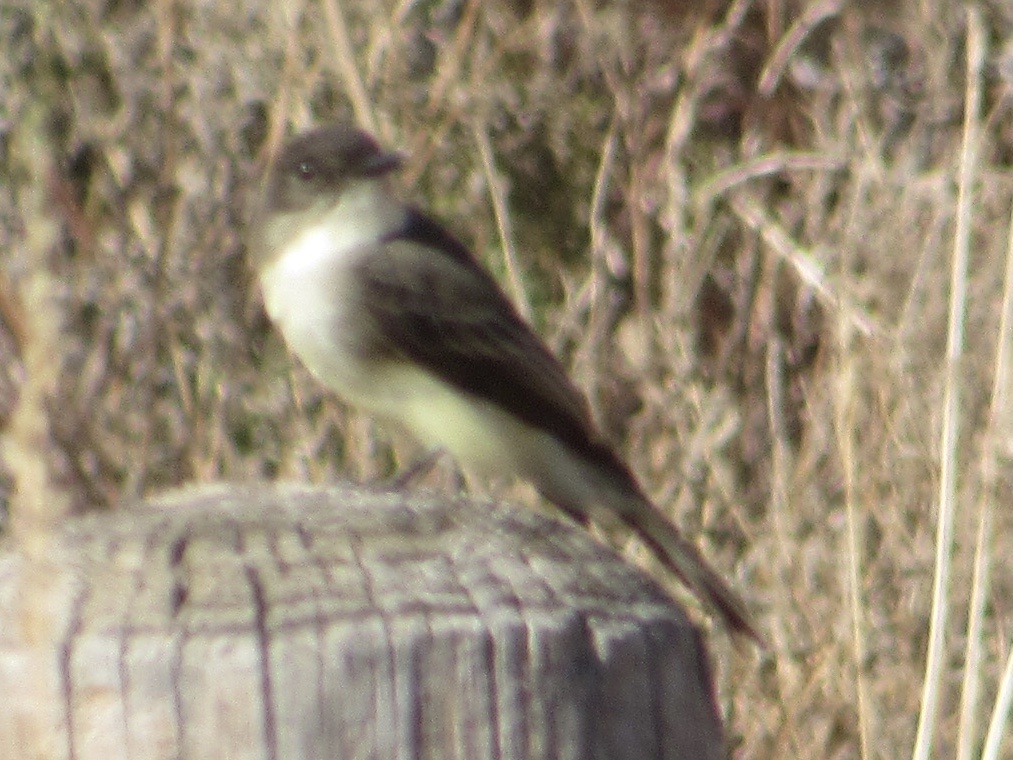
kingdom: Animalia
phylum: Chordata
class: Aves
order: Passeriformes
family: Tyrannidae
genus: Sayornis
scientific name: Sayornis phoebe
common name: Eastern phoebe
